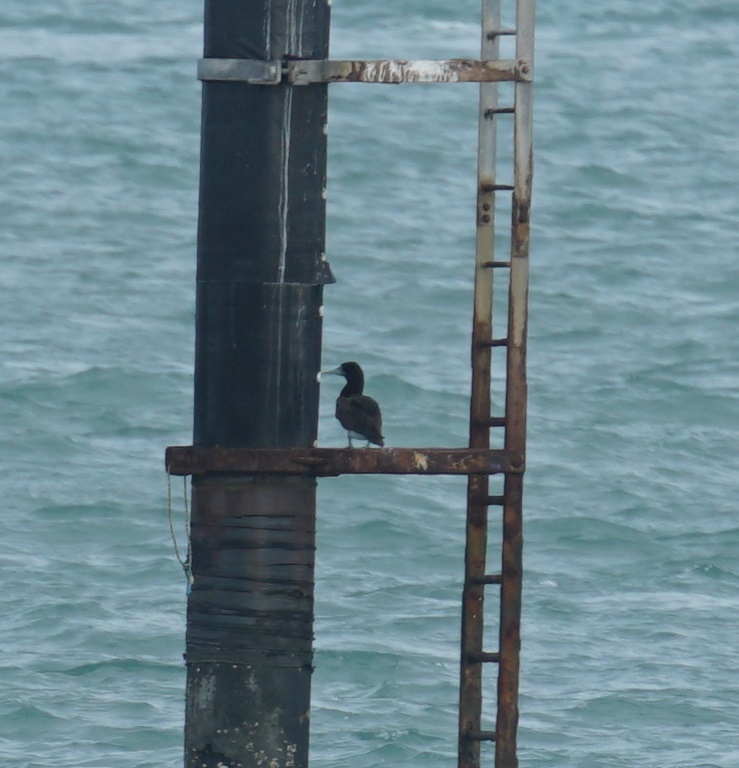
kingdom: Animalia
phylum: Chordata
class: Aves
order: Suliformes
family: Sulidae
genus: Sula
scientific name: Sula leucogaster
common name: Brown booby
